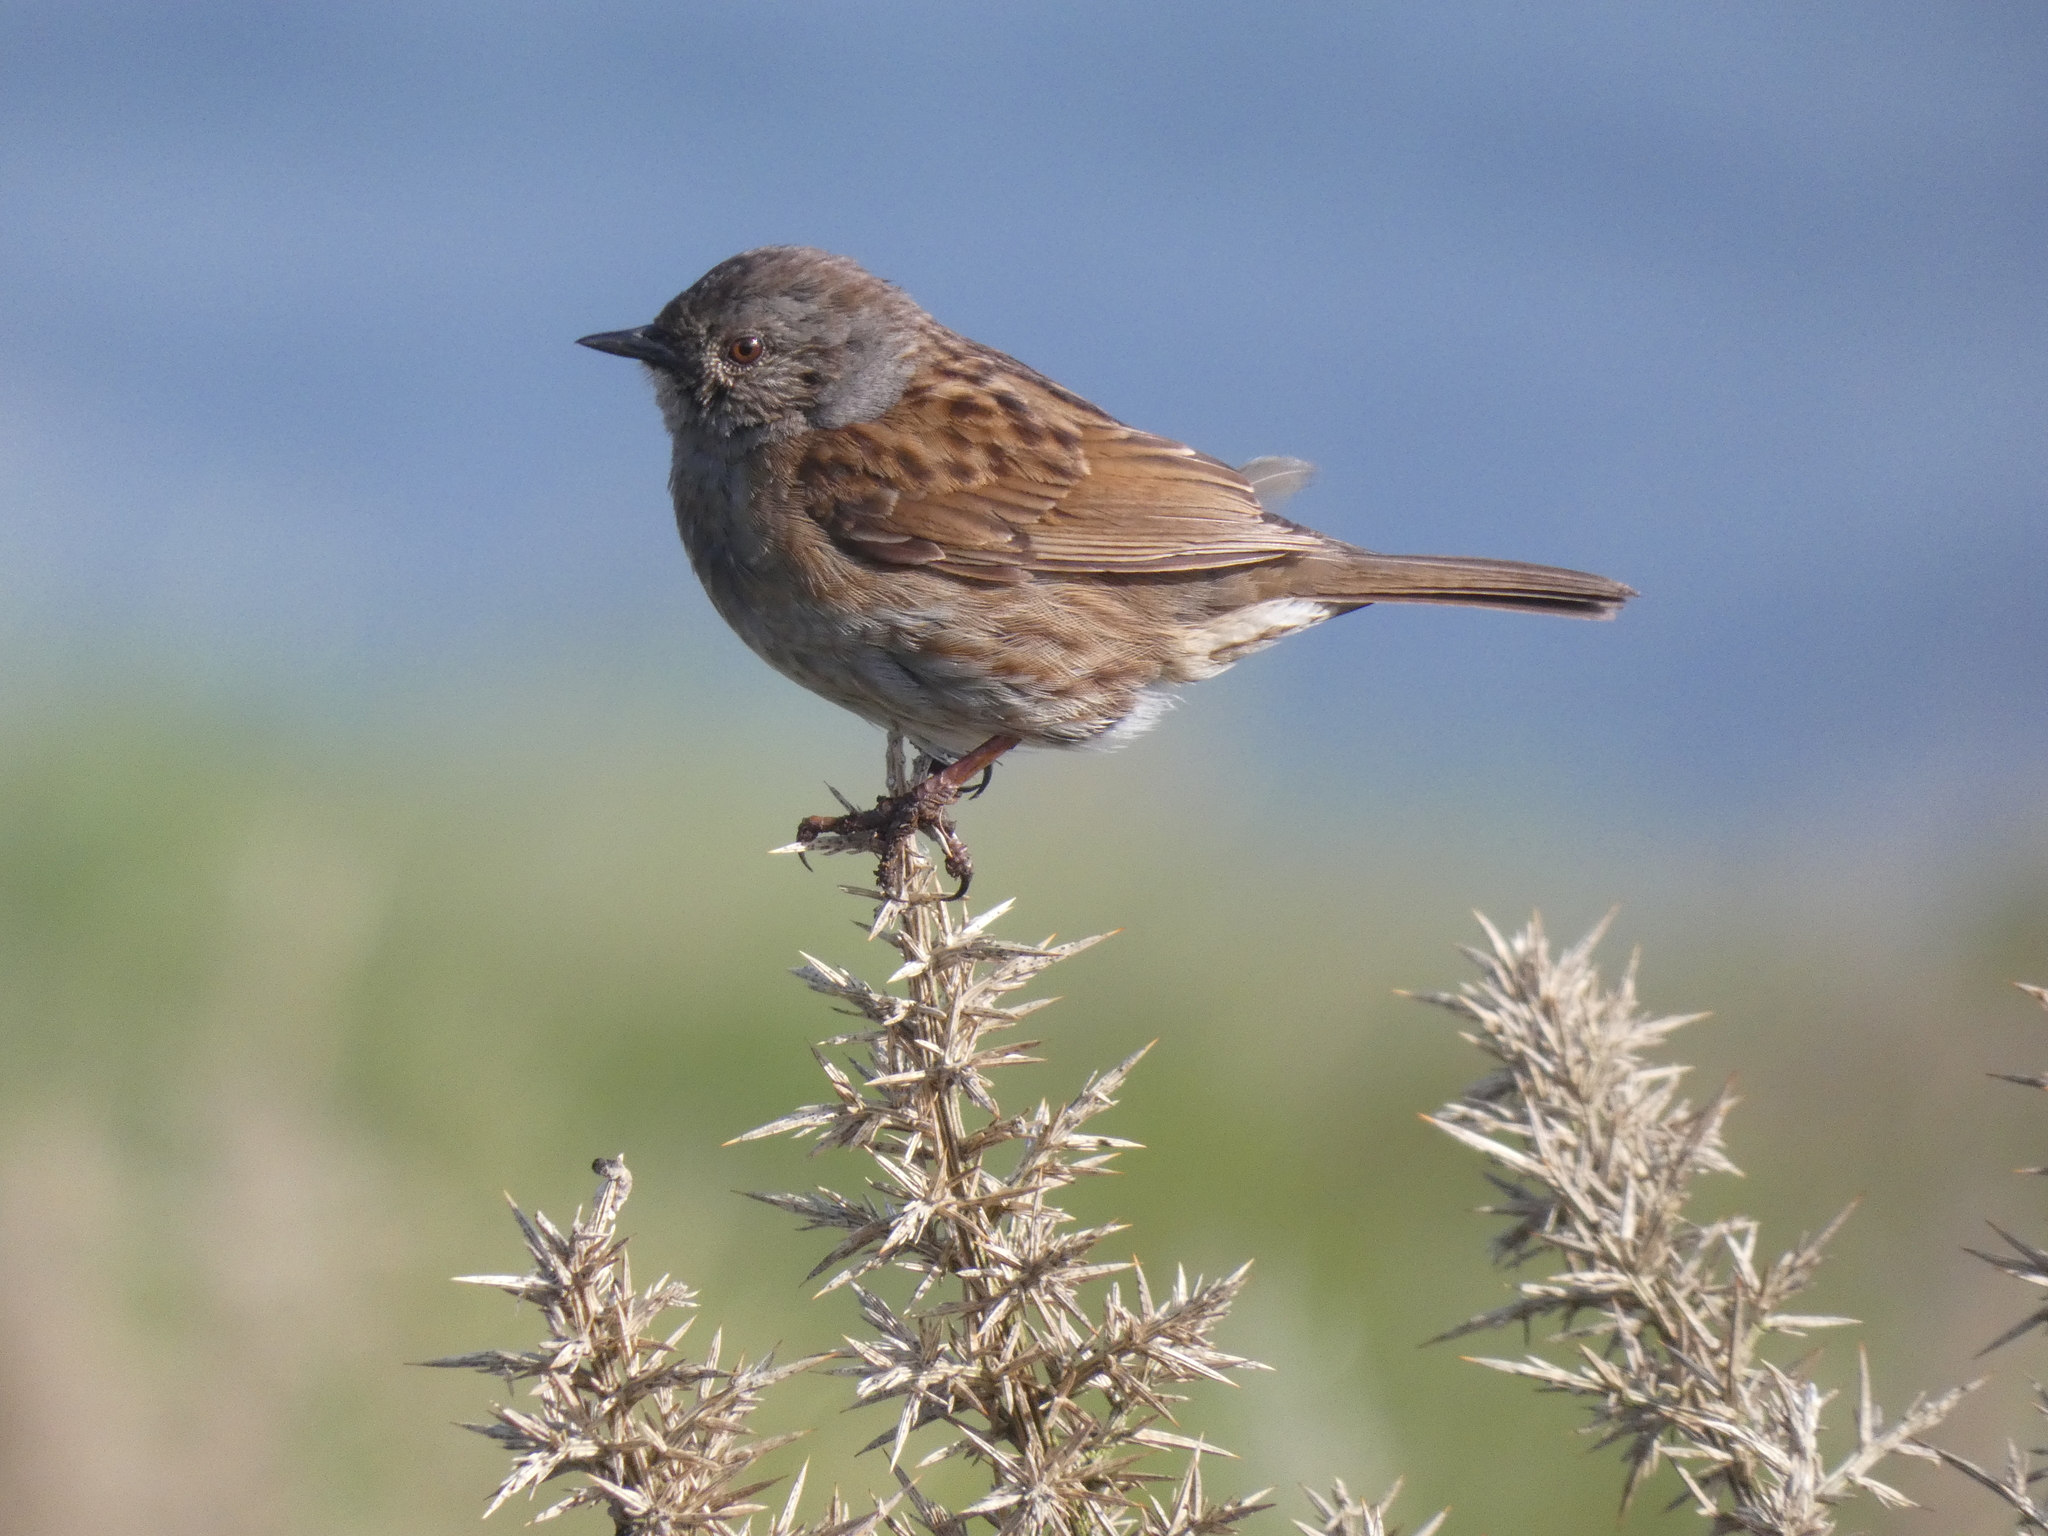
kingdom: Animalia
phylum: Chordata
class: Aves
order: Passeriformes
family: Prunellidae
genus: Prunella
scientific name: Prunella modularis
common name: Dunnock
